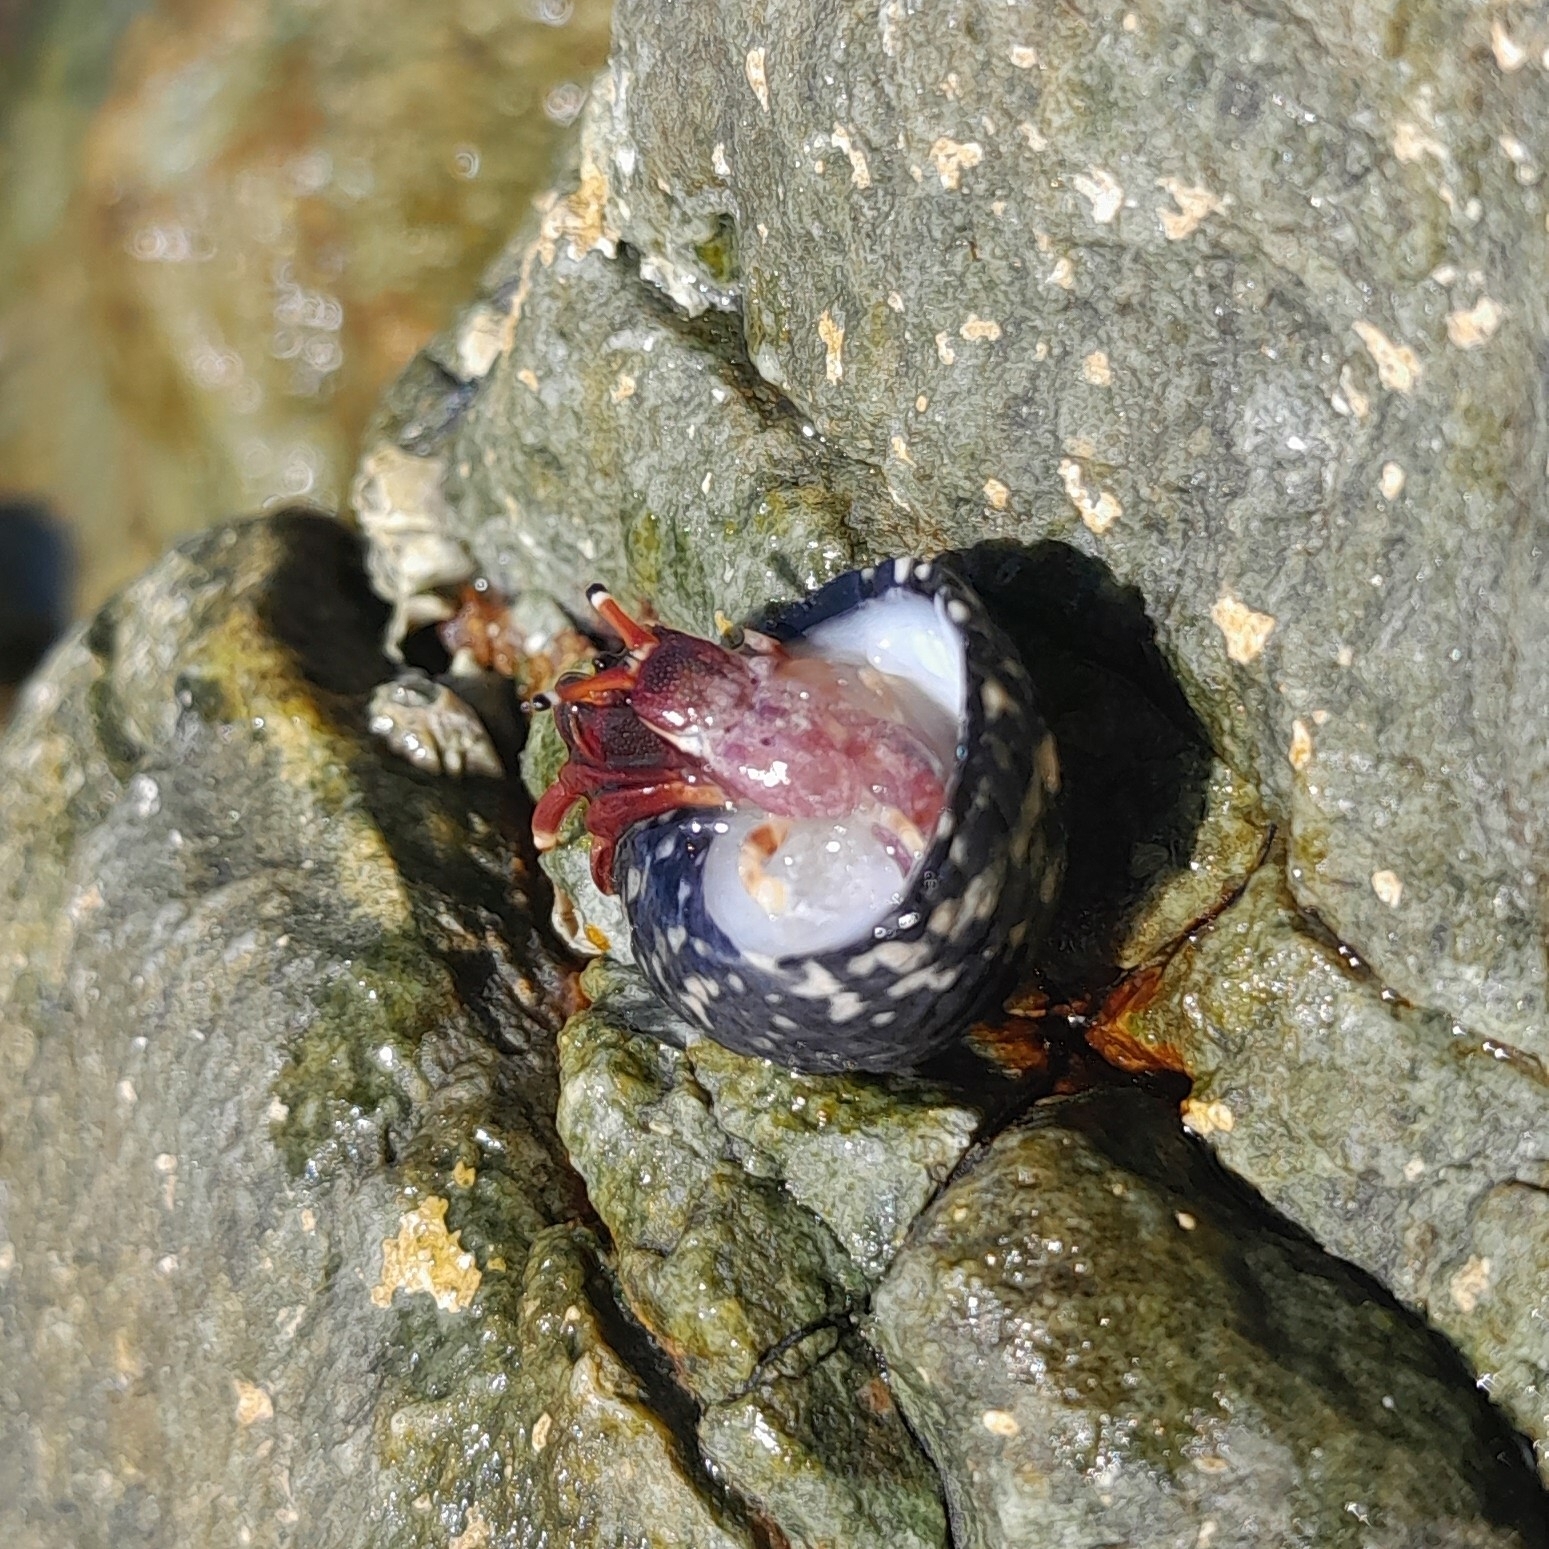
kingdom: Animalia
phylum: Arthropoda
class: Malacostraca
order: Decapoda
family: Diogenidae
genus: Calcinus
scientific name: Calcinus tibicen
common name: Orangeclaw hermit
